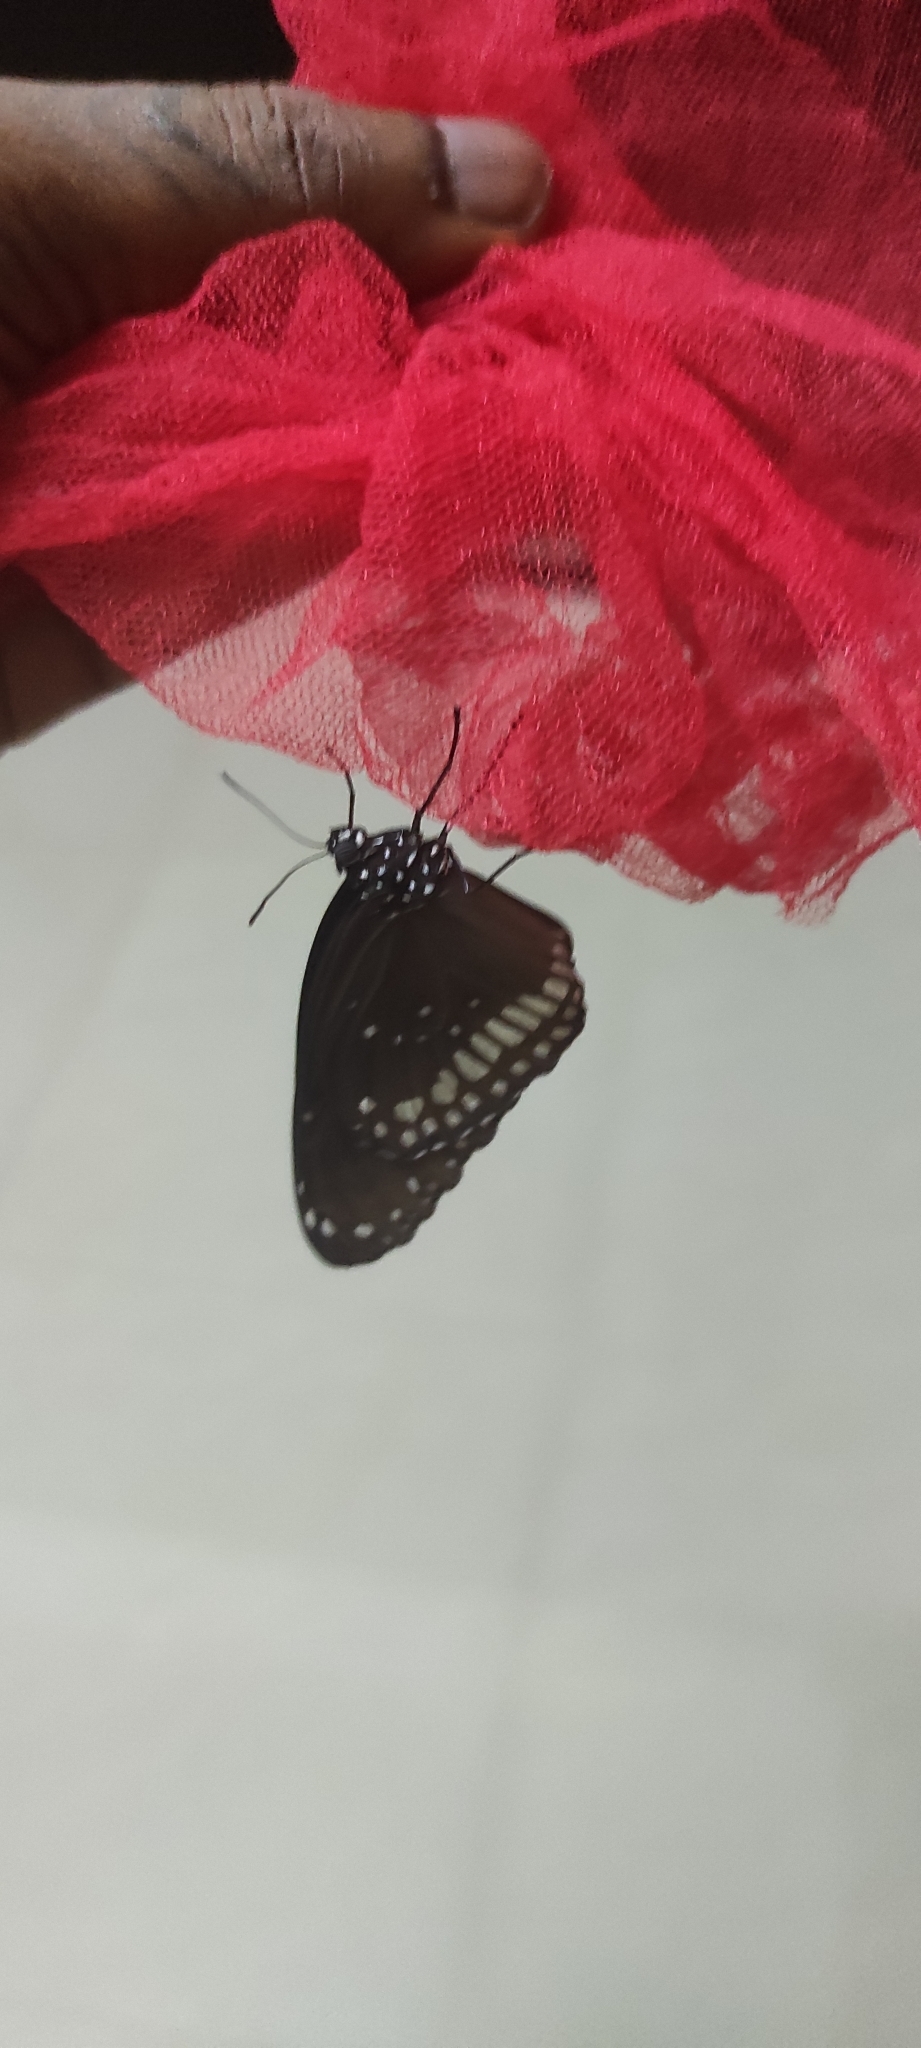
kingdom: Animalia
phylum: Arthropoda
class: Insecta
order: Lepidoptera
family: Nymphalidae
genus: Euploea
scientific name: Euploea core
